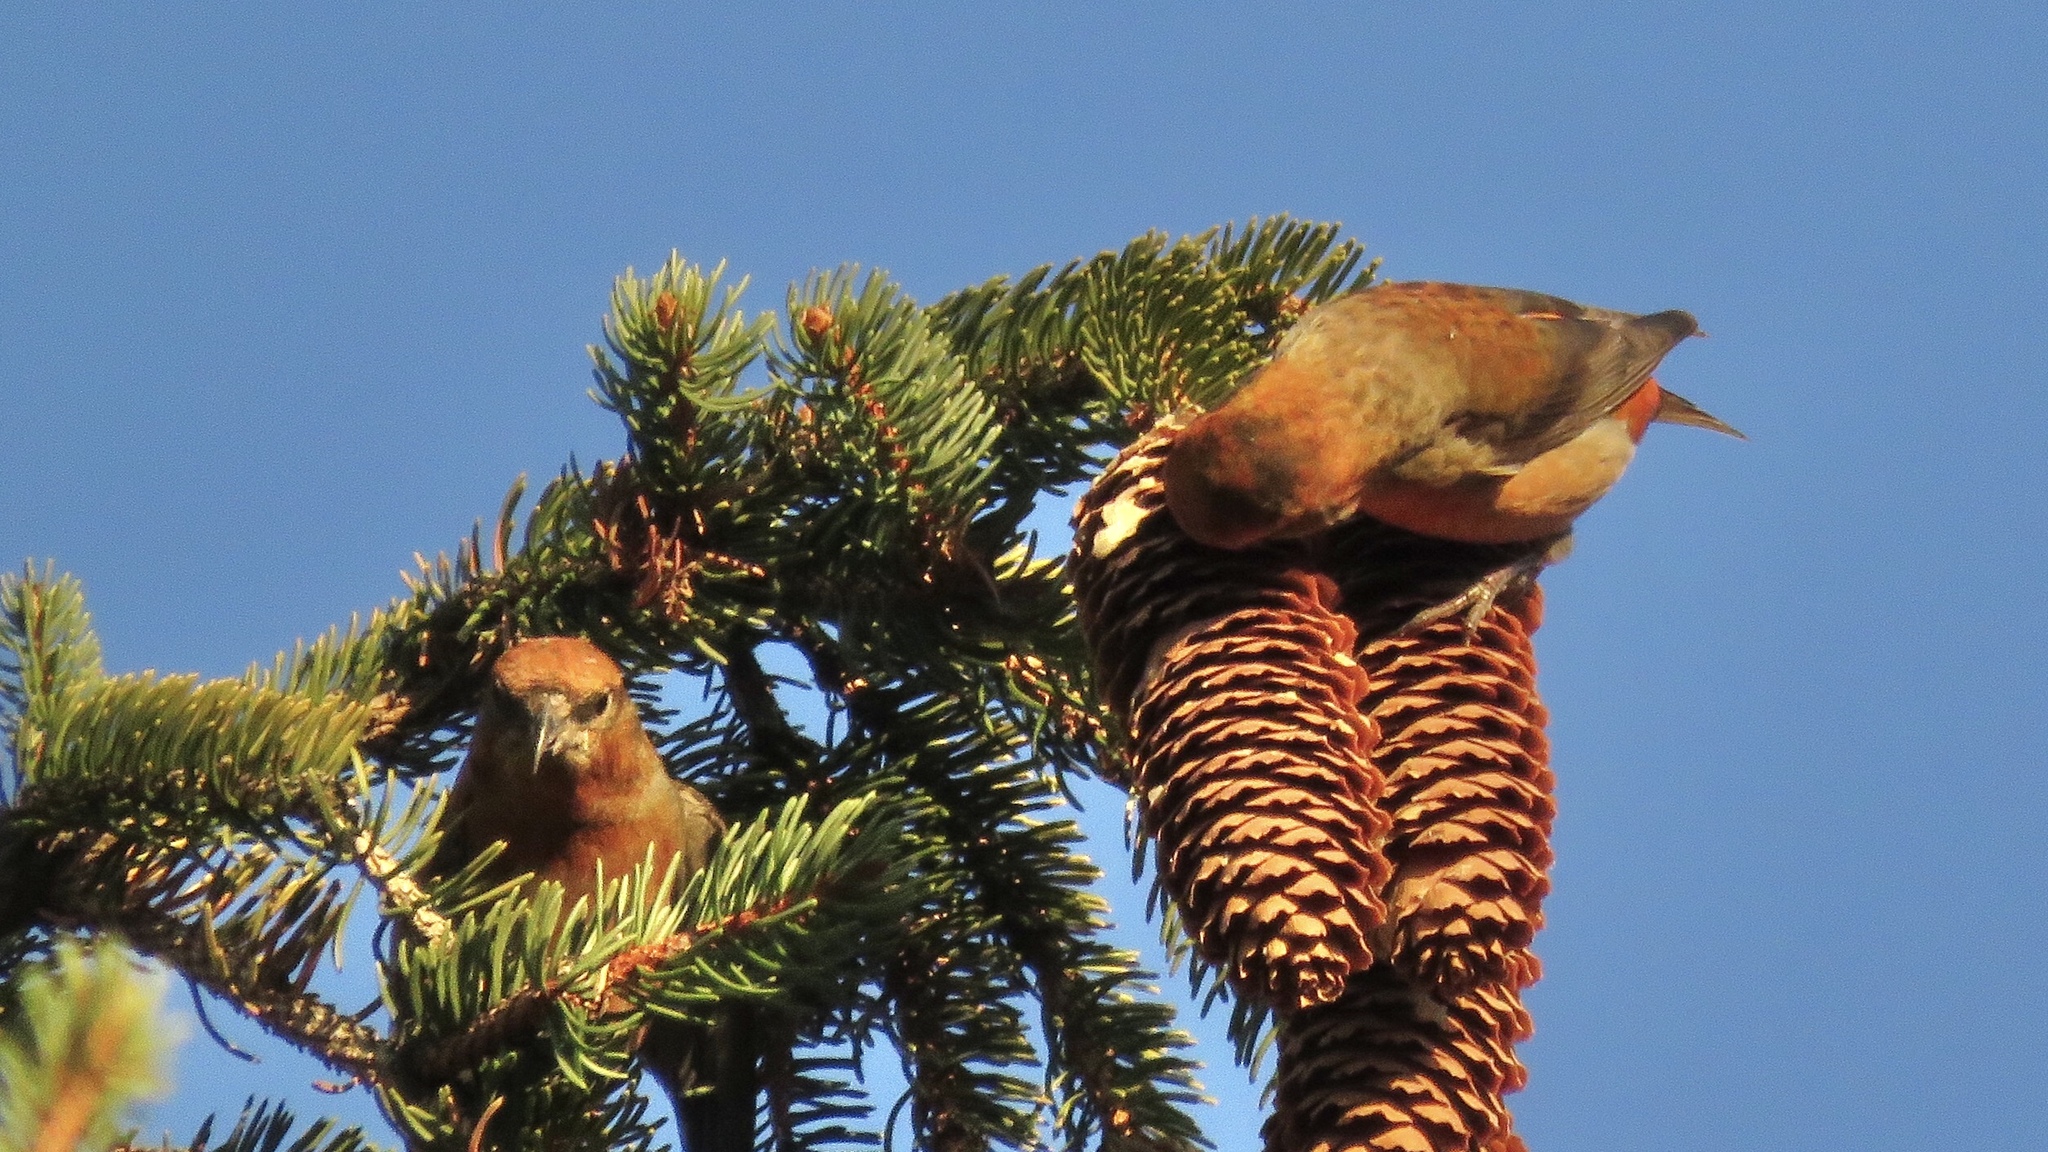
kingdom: Animalia
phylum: Chordata
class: Aves
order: Passeriformes
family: Fringillidae
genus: Loxia
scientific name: Loxia curvirostra
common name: Red crossbill
